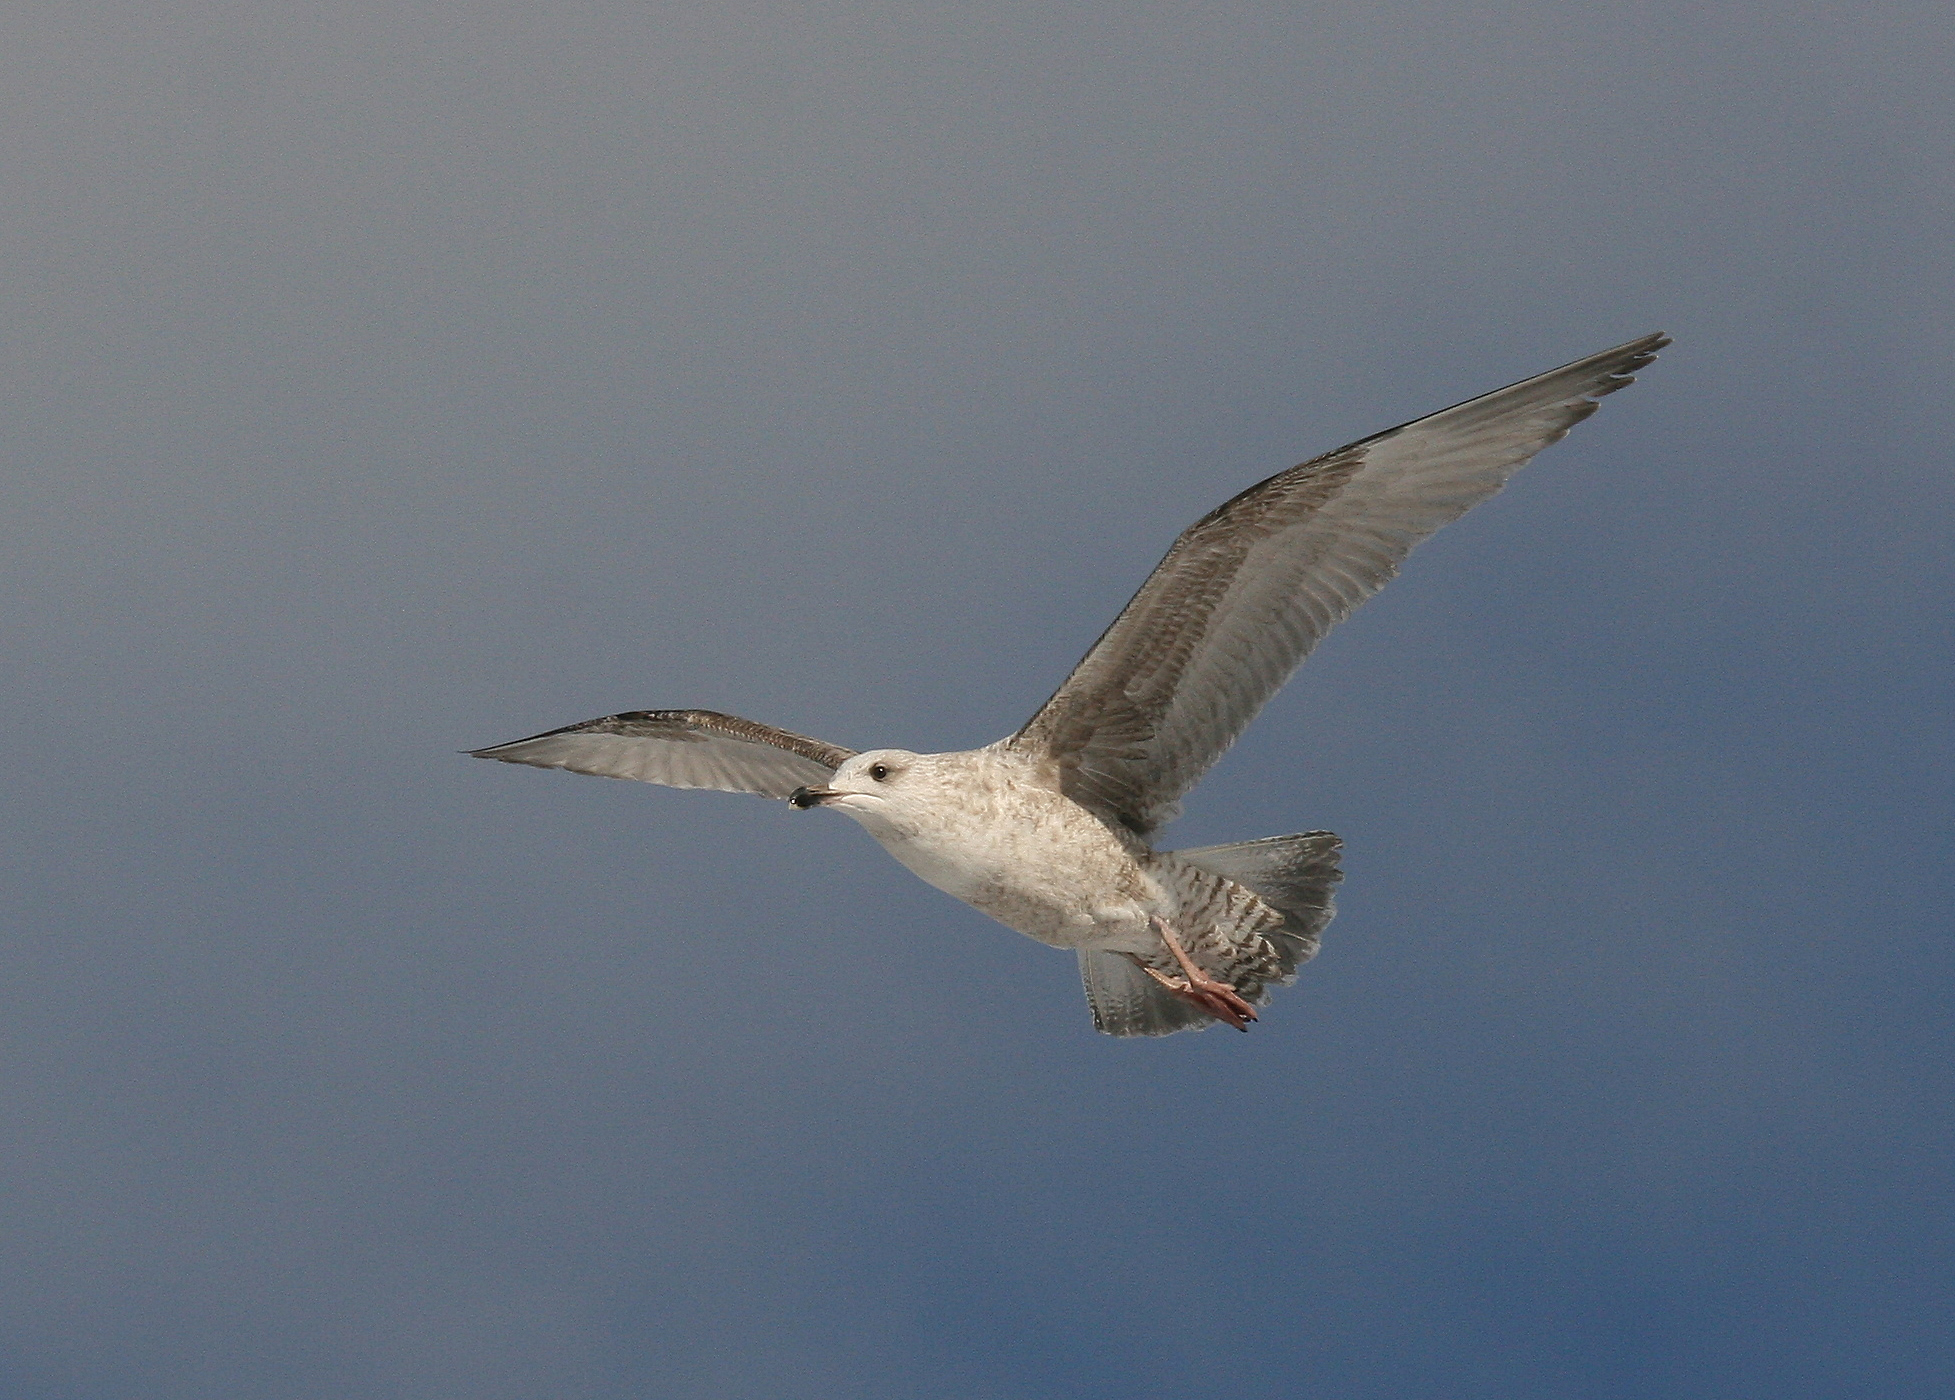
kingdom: Animalia
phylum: Chordata
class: Aves
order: Charadriiformes
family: Laridae
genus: Larus
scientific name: Larus argentatus
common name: Herring gull
